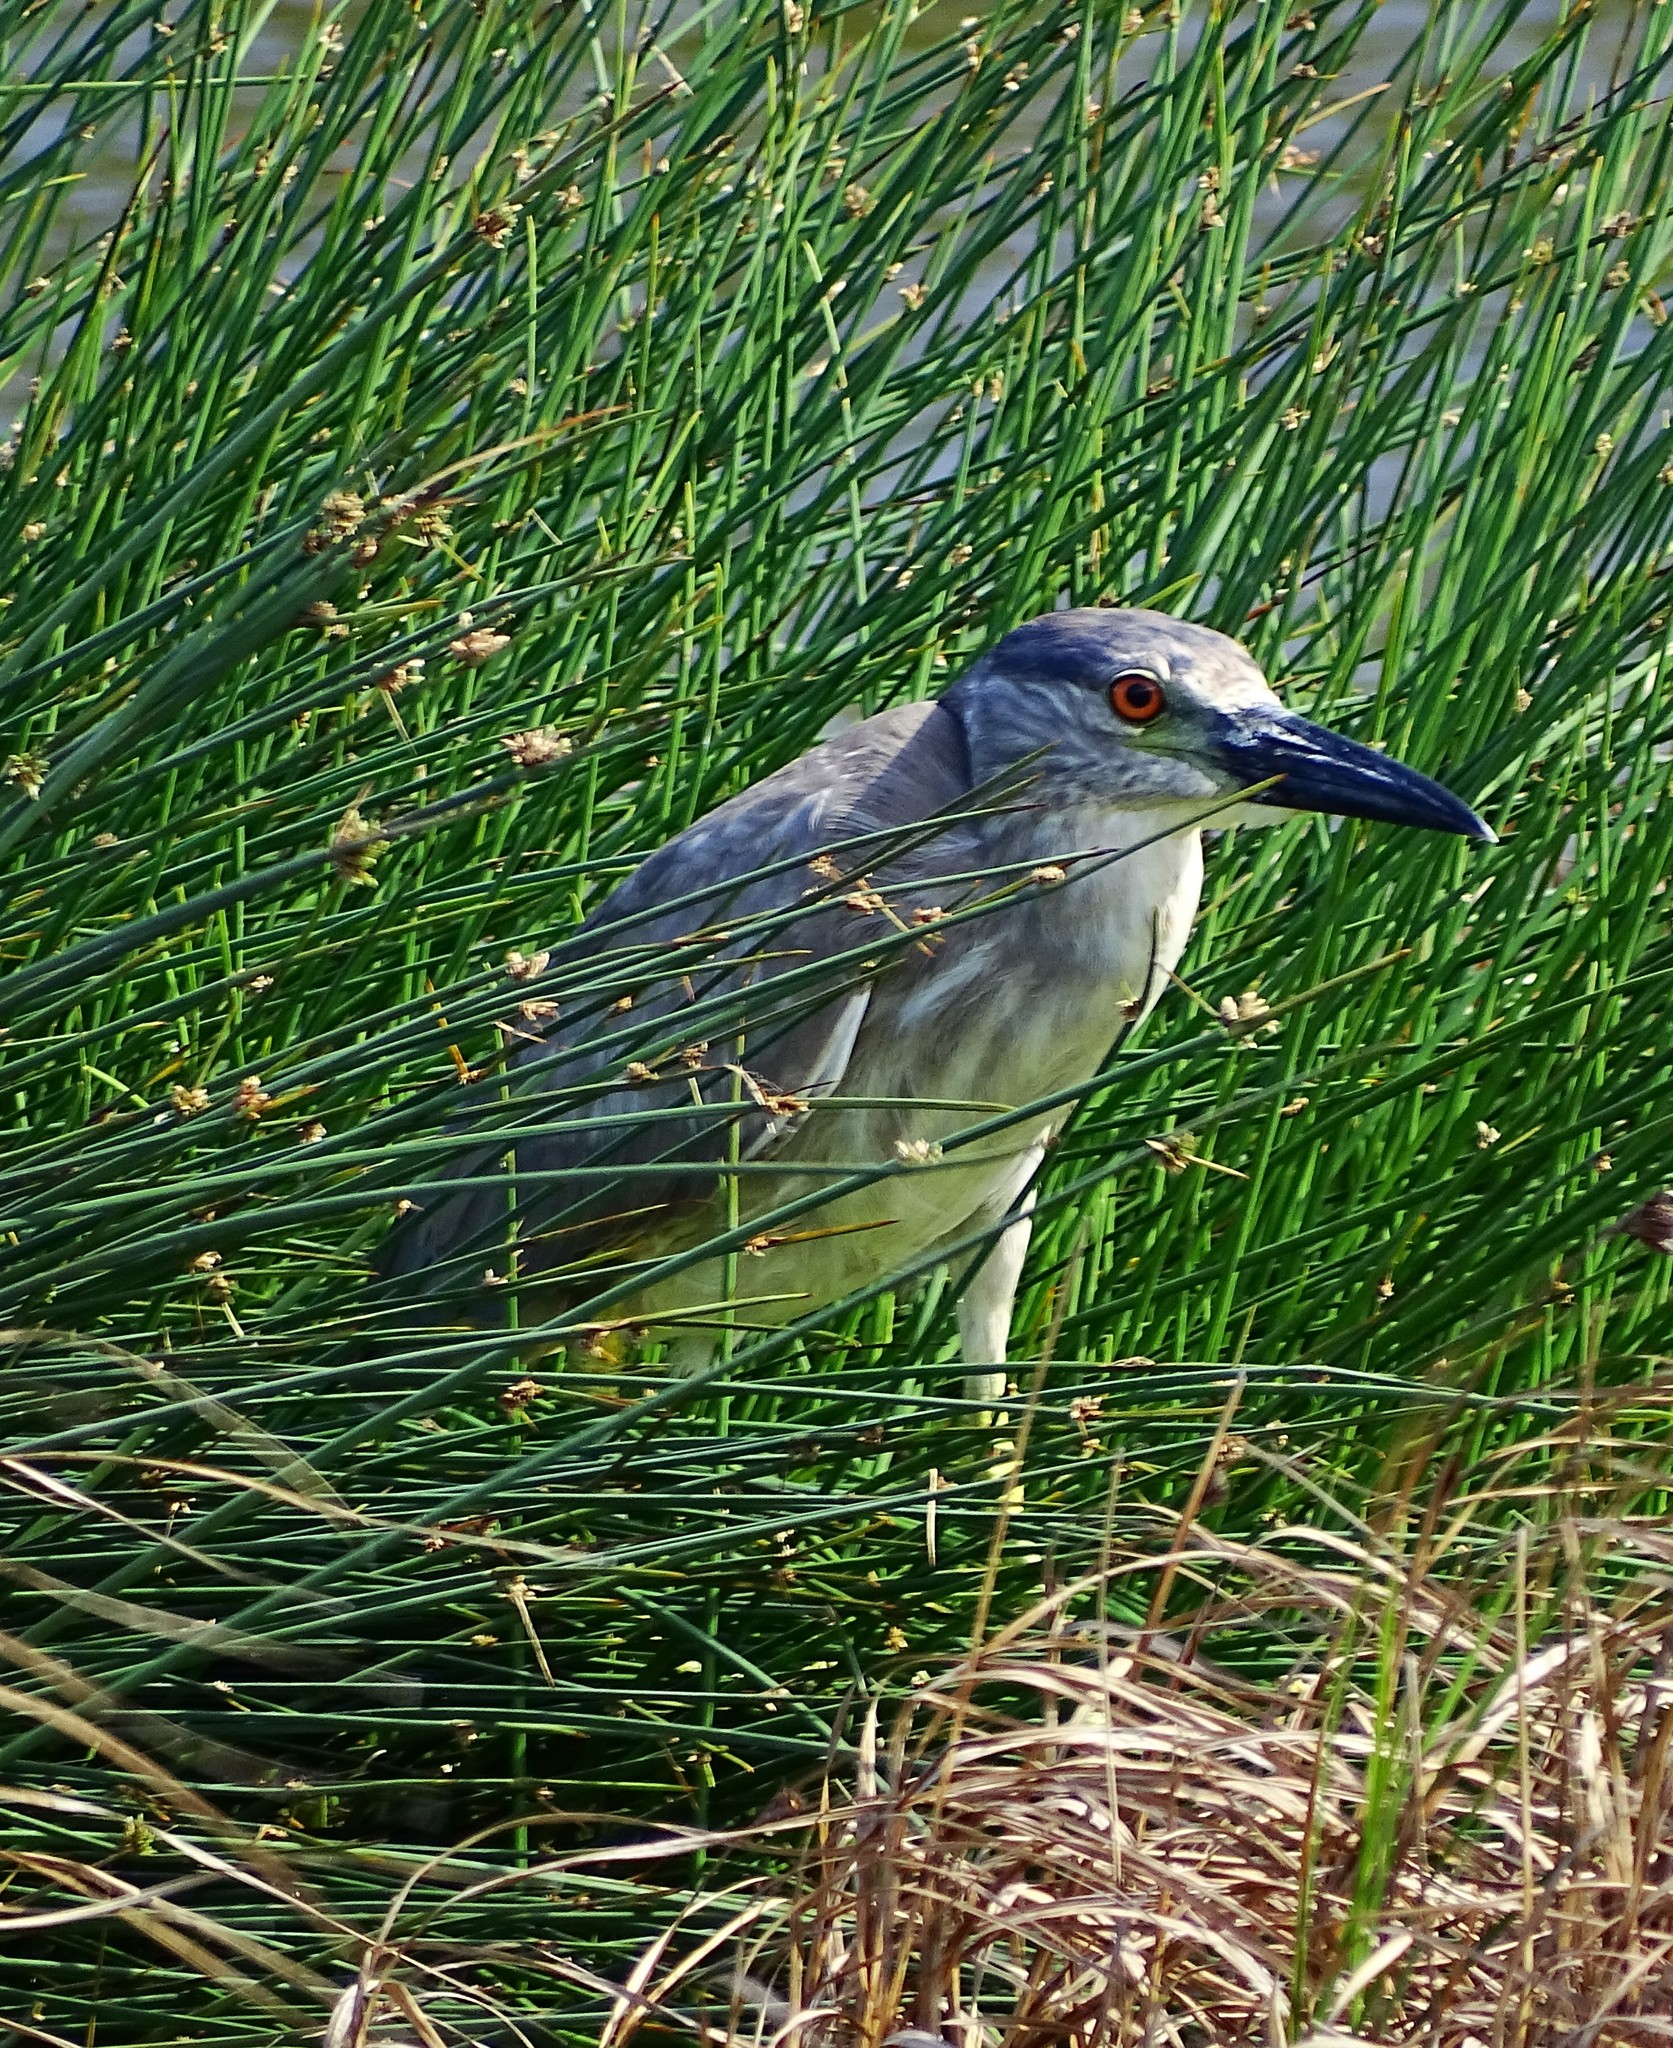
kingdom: Animalia
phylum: Chordata
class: Aves
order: Pelecaniformes
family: Ardeidae
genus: Nycticorax
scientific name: Nycticorax nycticorax
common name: Black-crowned night heron
